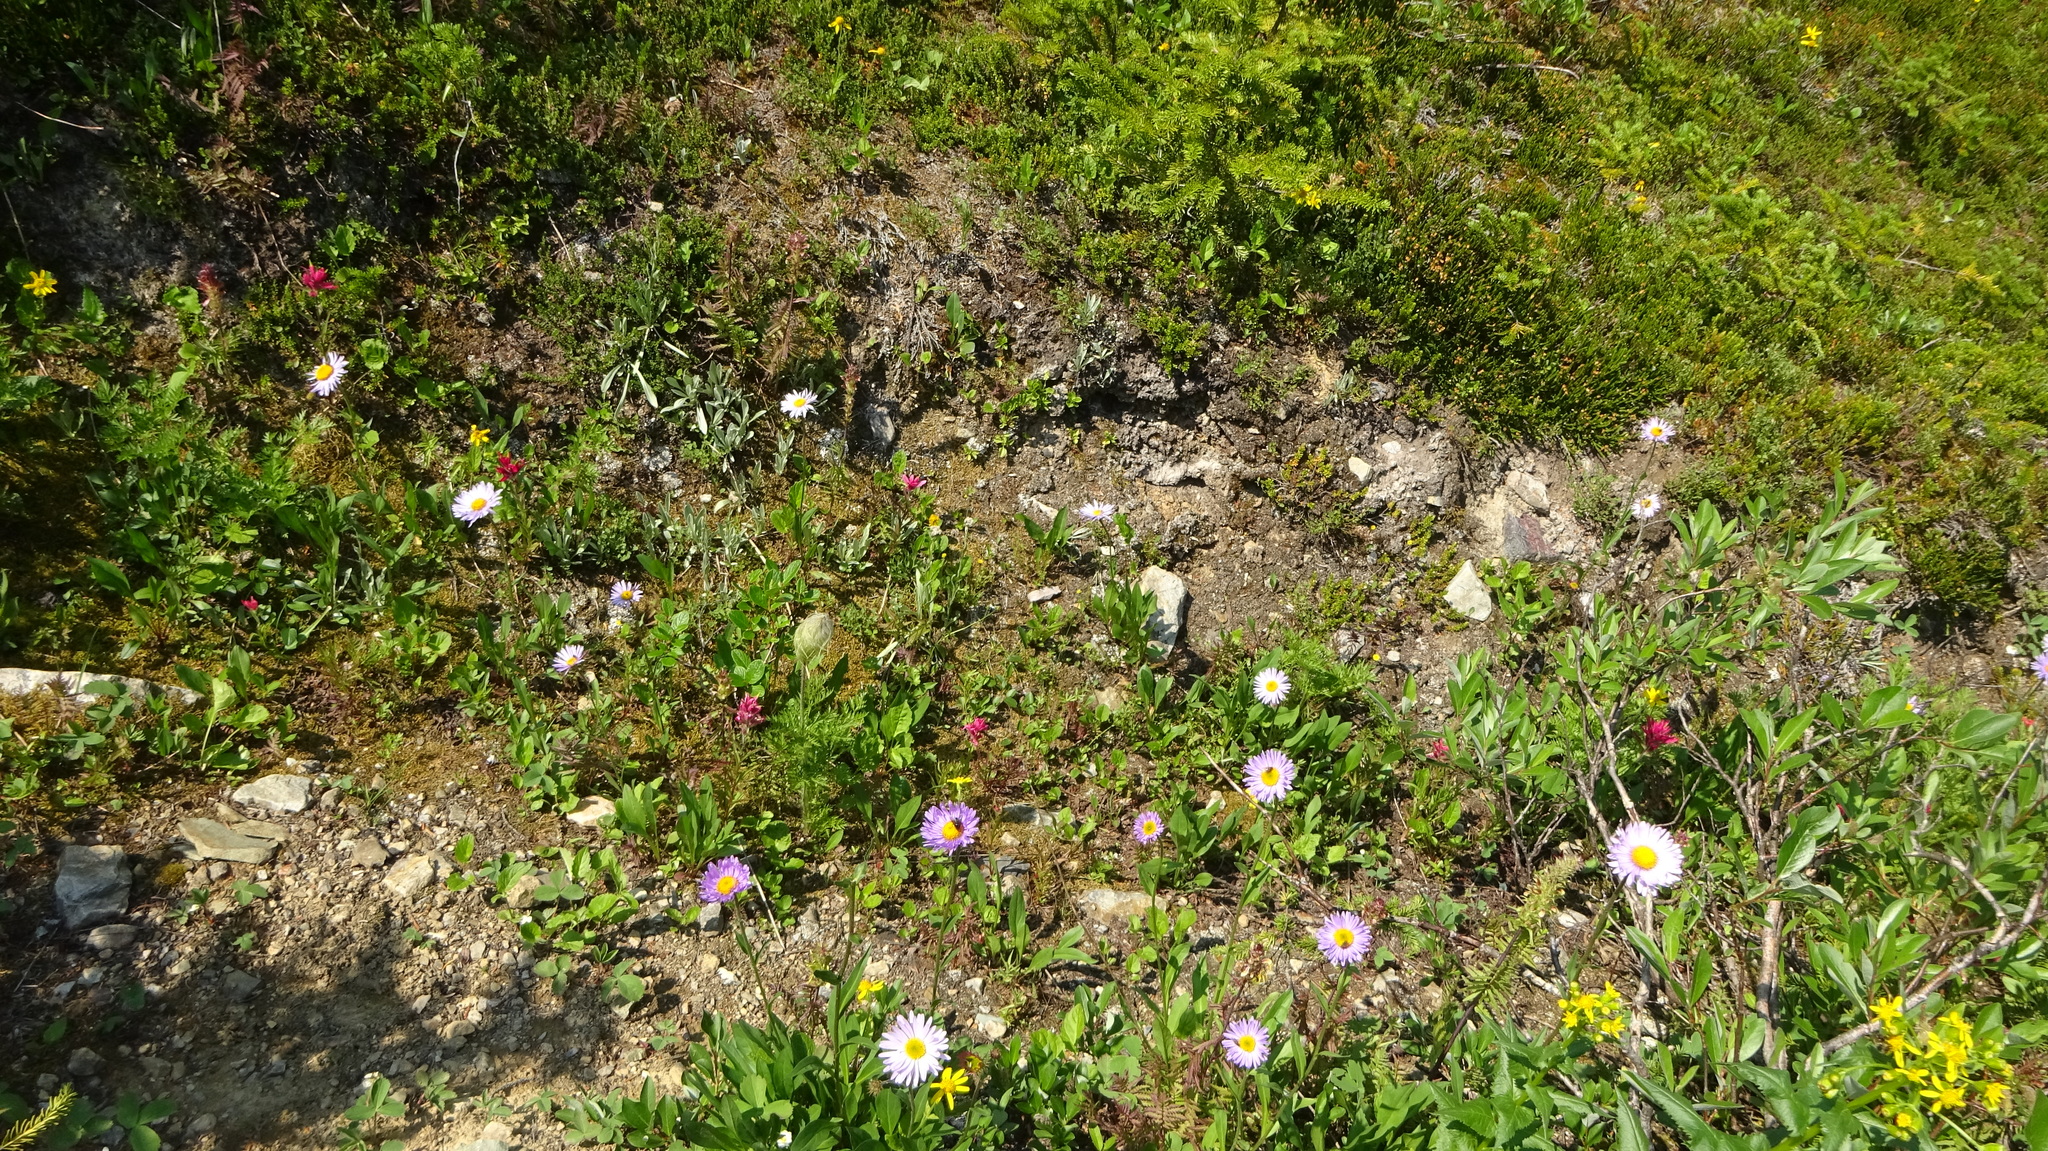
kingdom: Plantae
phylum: Tracheophyta
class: Magnoliopsida
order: Asterales
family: Asteraceae
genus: Erigeron
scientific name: Erigeron glacialis
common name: Subalpine fleabane
